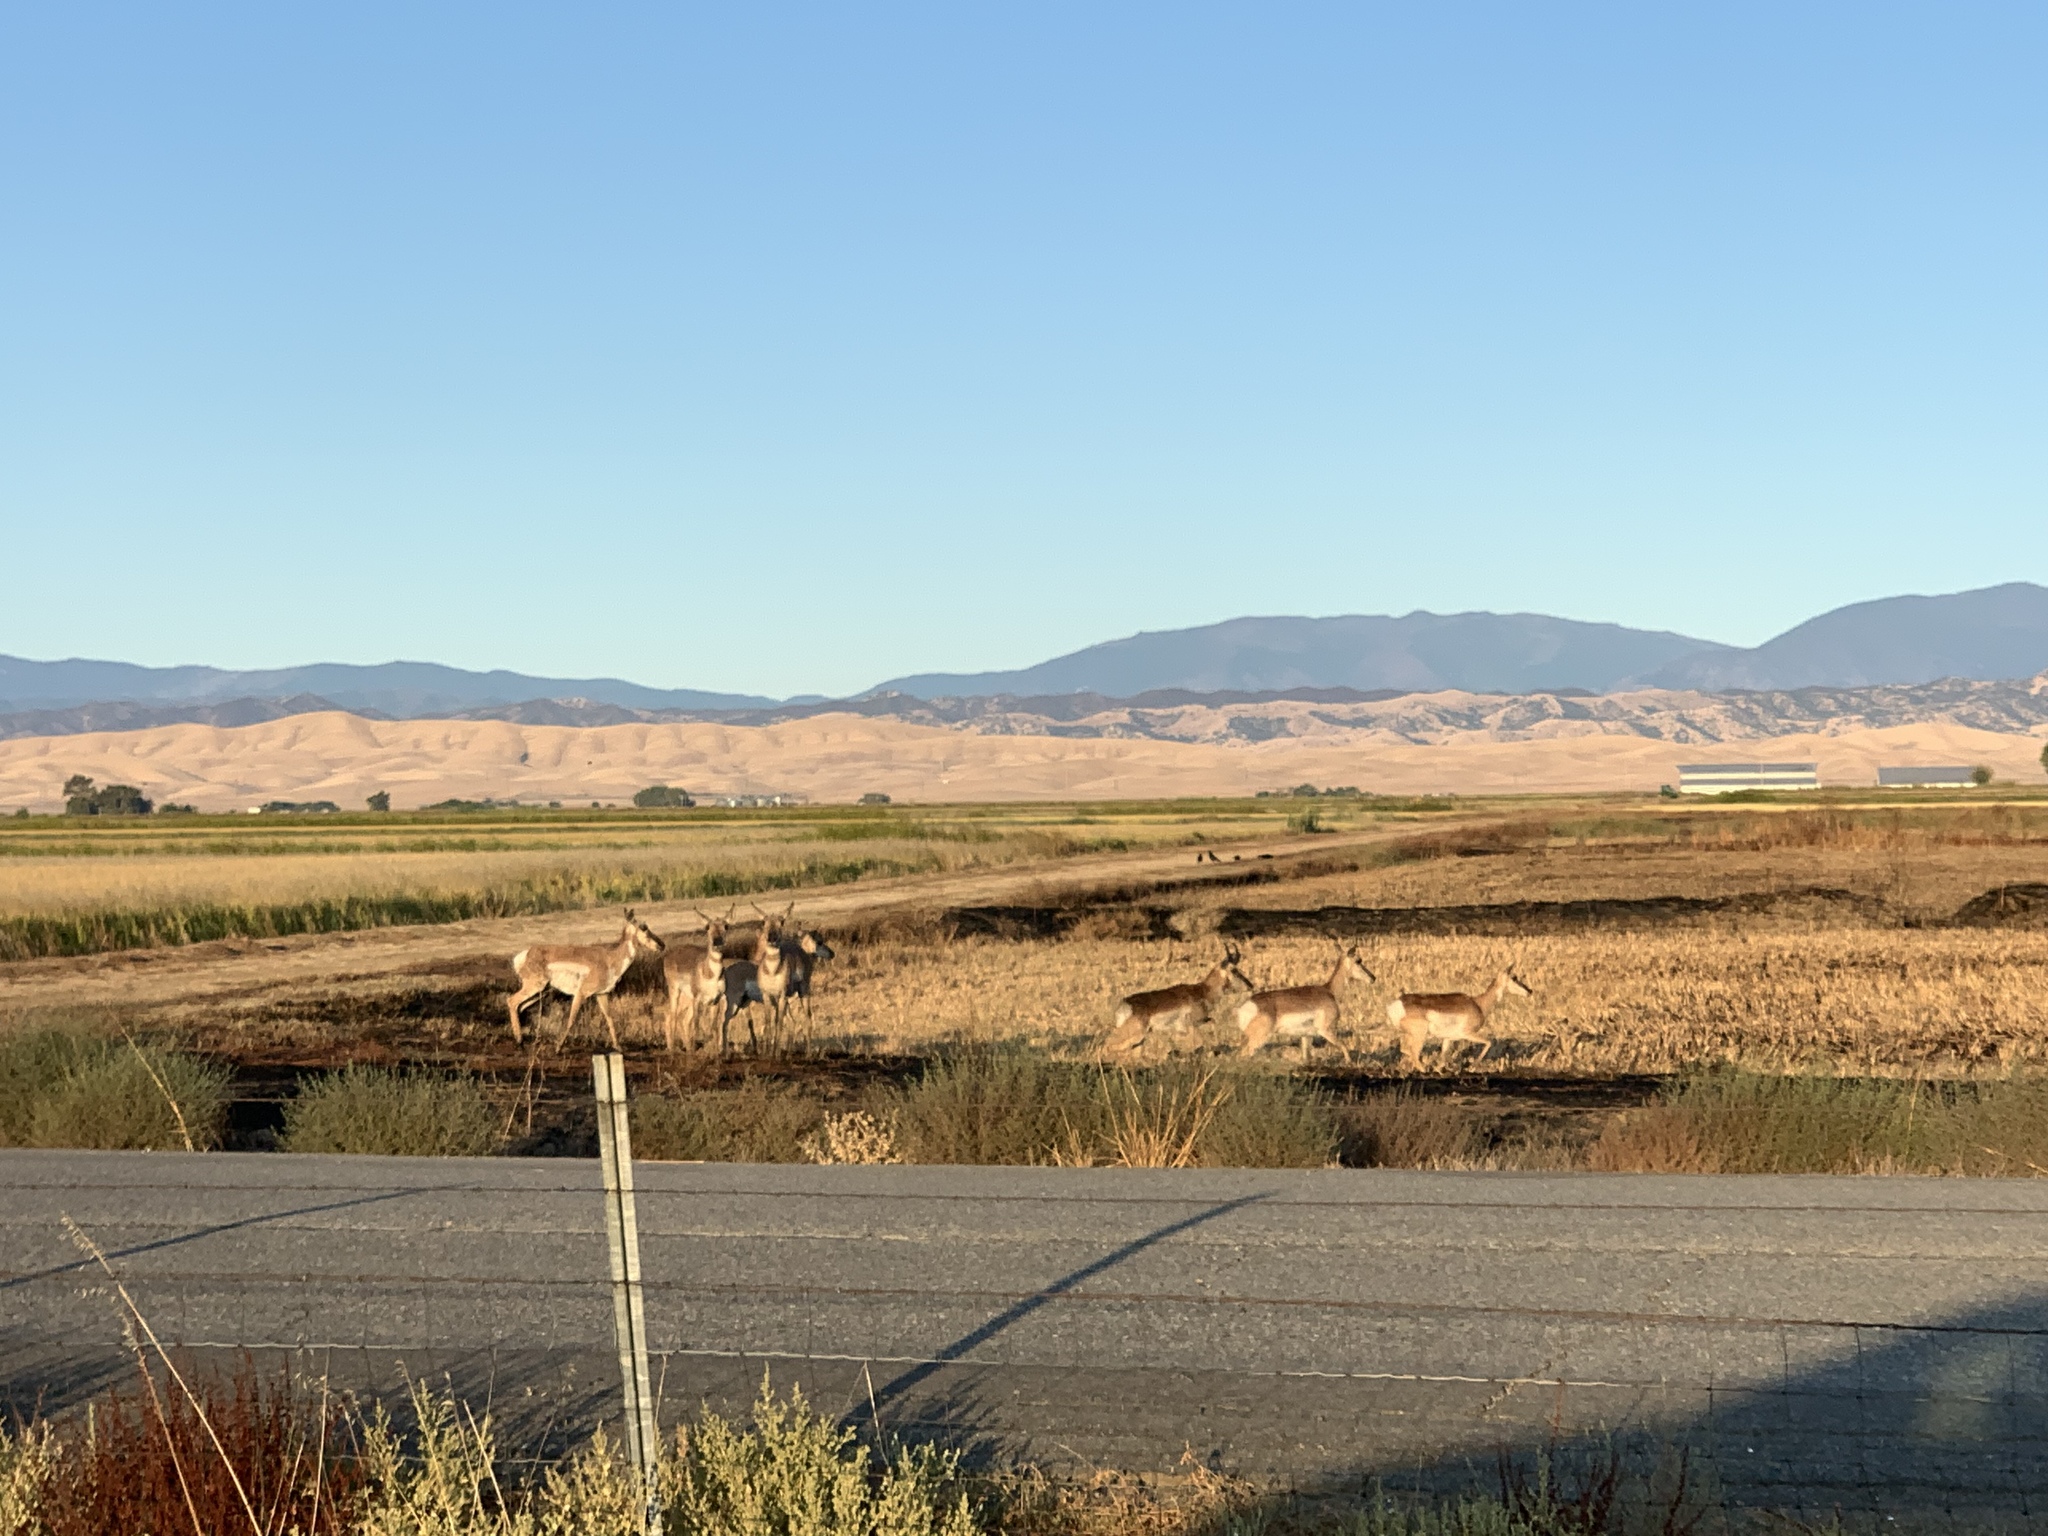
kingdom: Animalia
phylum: Chordata
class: Mammalia
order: Artiodactyla
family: Antilocapridae
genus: Antilocapra
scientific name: Antilocapra americana
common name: Pronghorn
